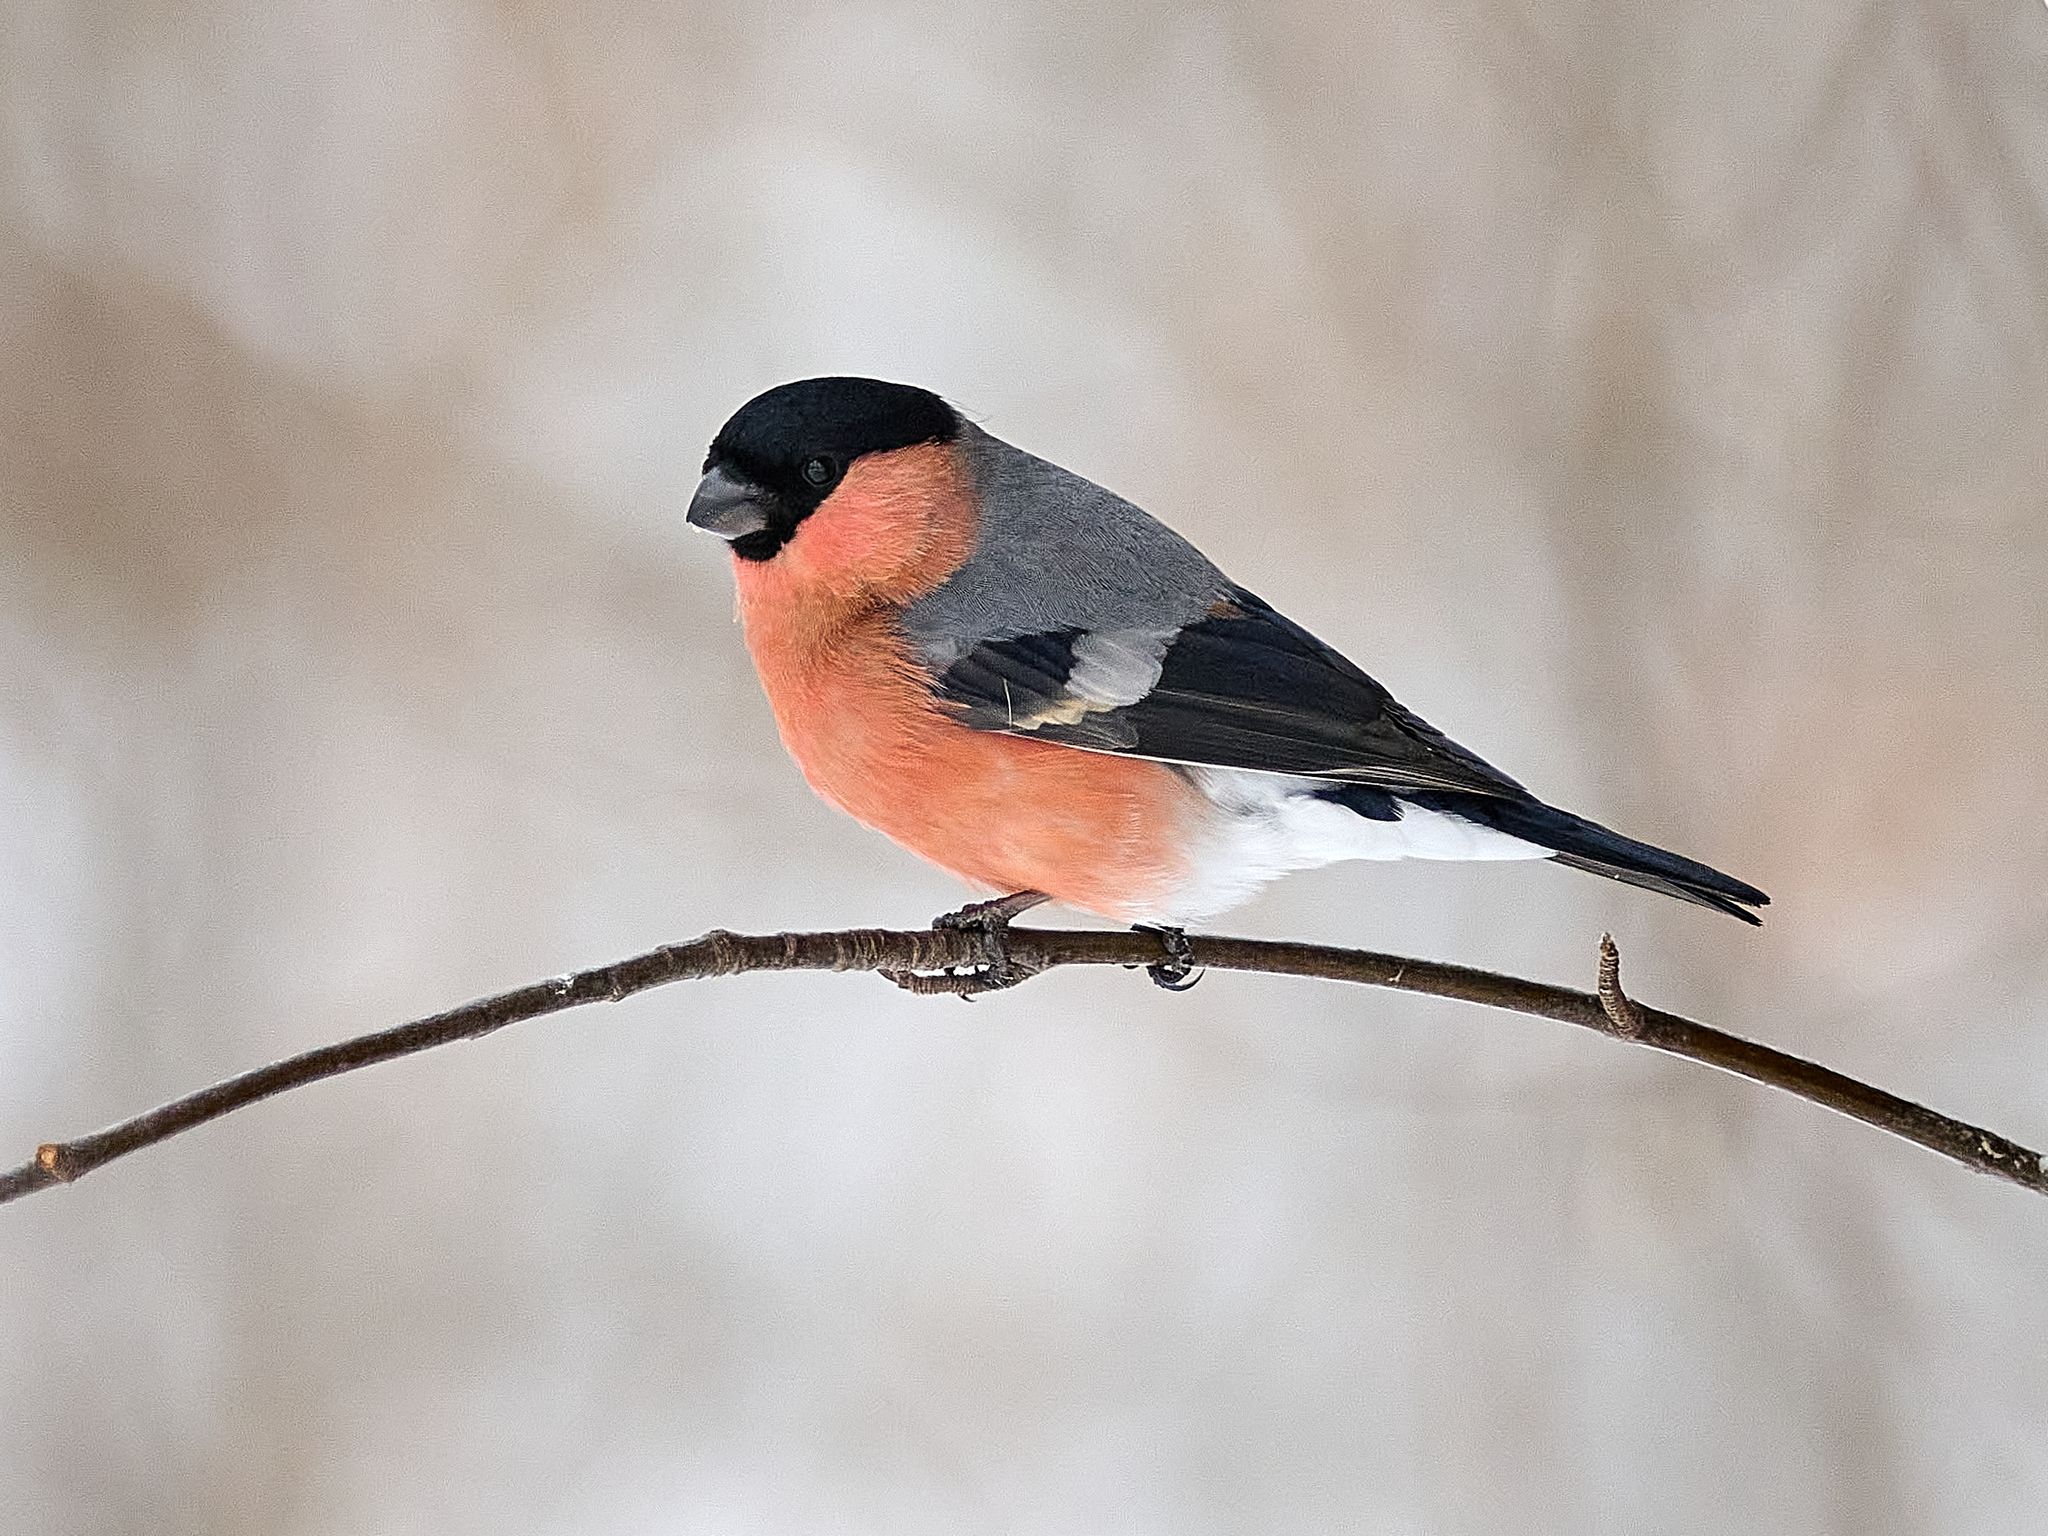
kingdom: Animalia
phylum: Chordata
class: Aves
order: Passeriformes
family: Fringillidae
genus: Pyrrhula
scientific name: Pyrrhula pyrrhula
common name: Eurasian bullfinch
